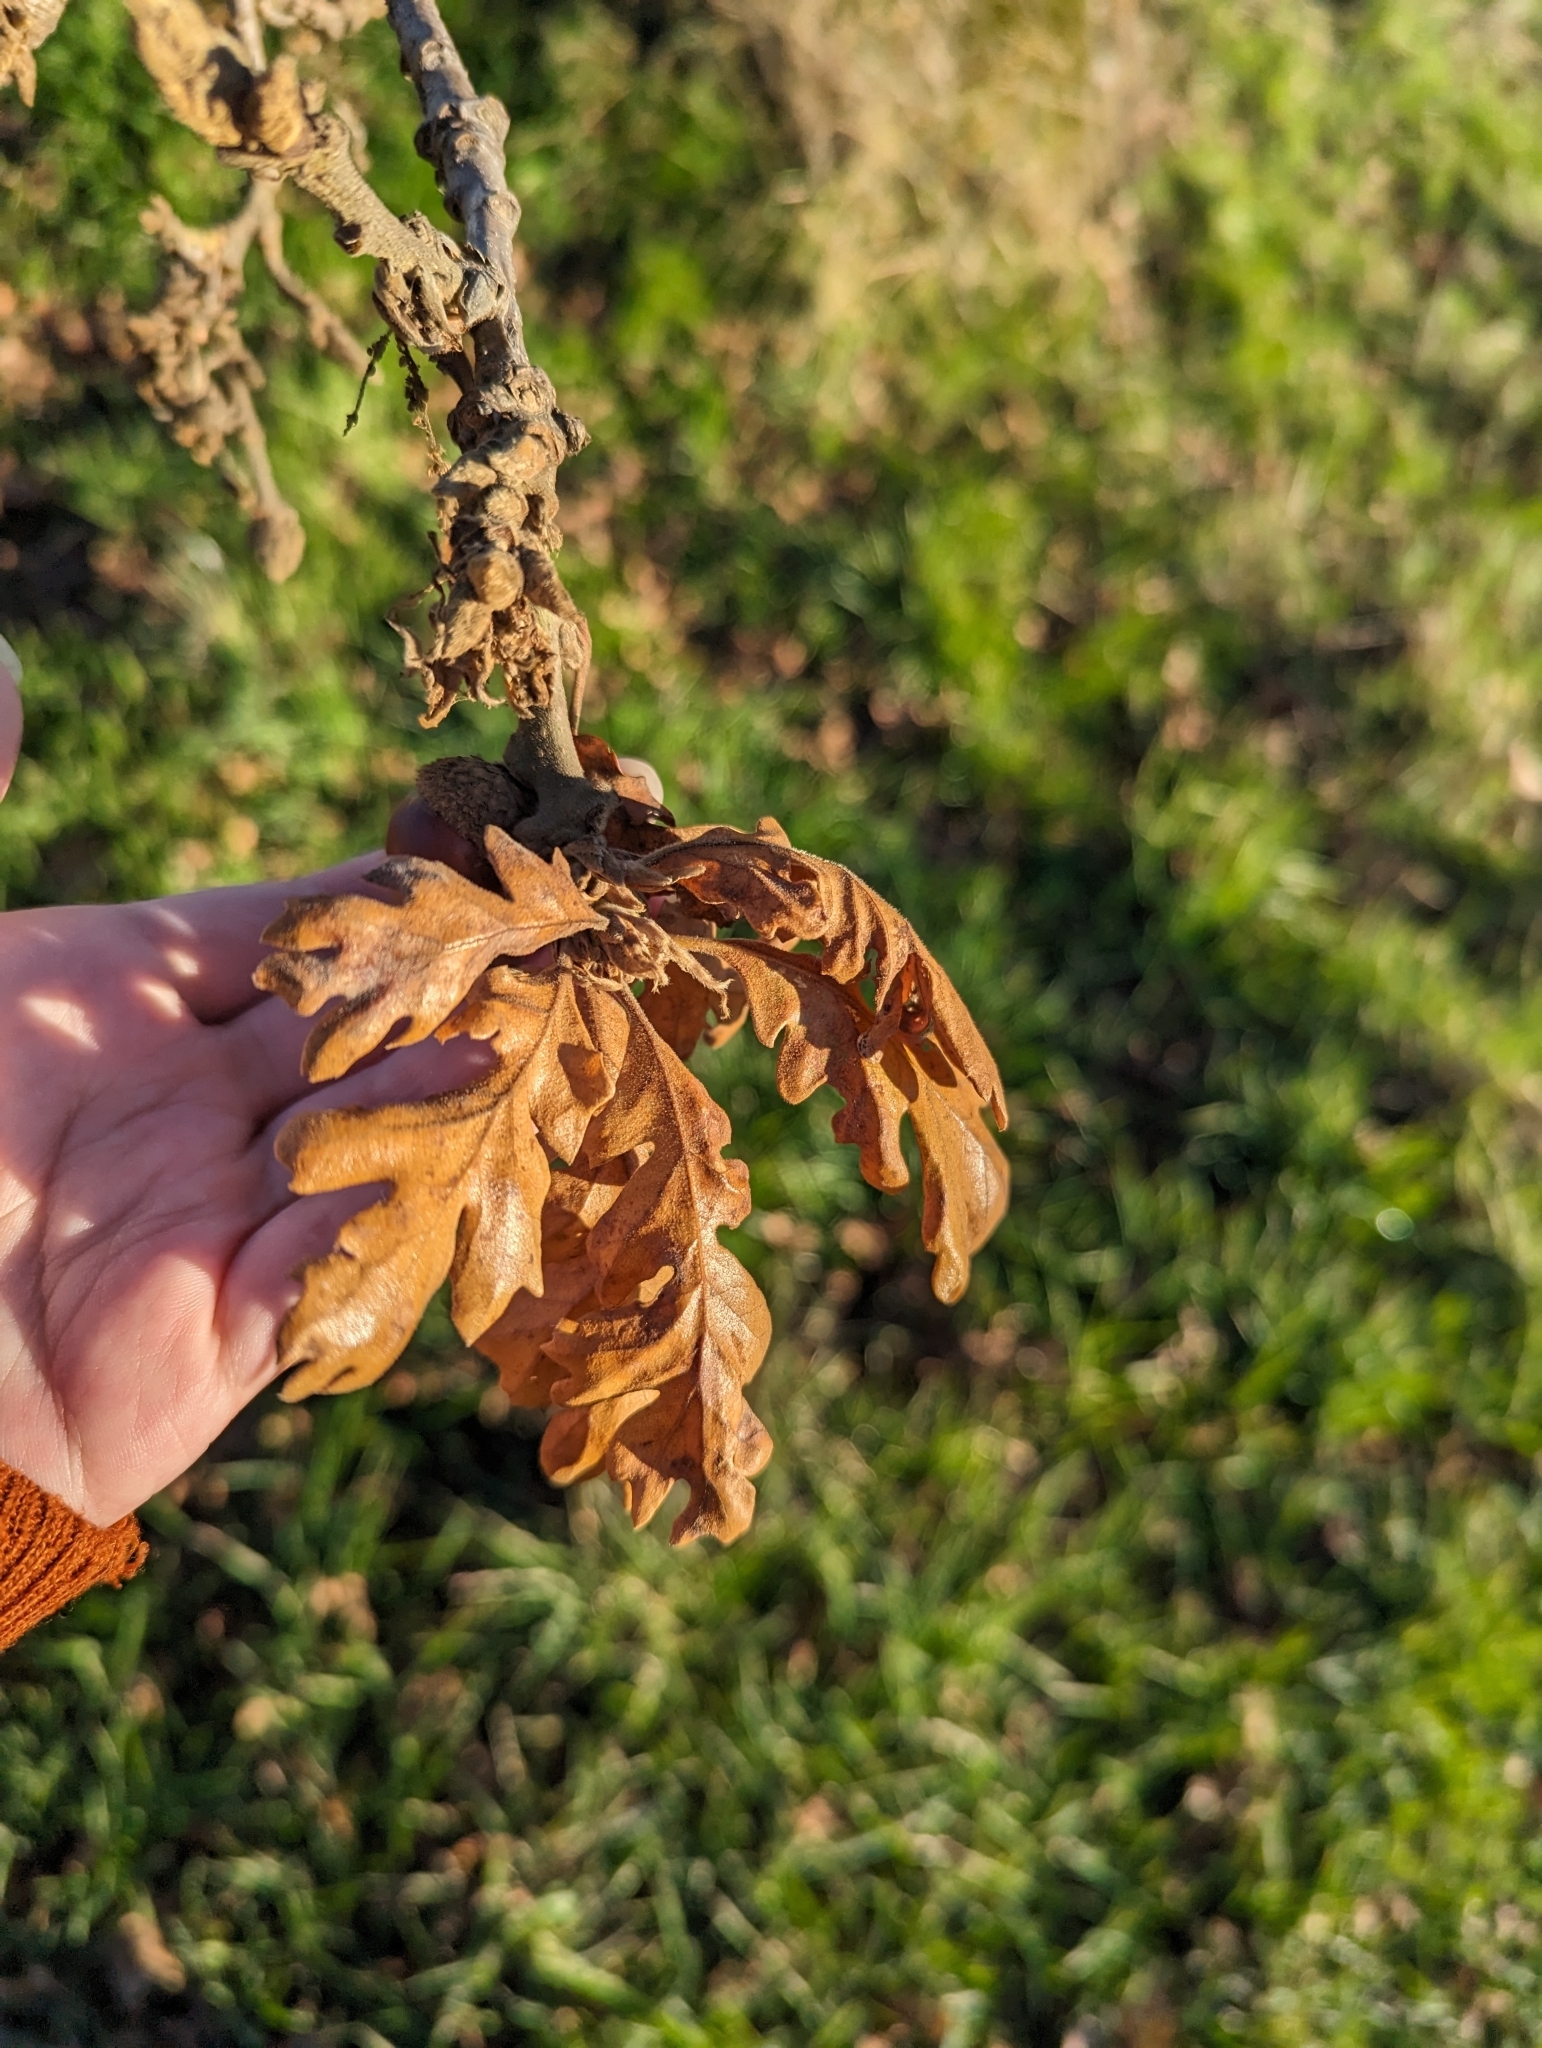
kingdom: Plantae
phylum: Tracheophyta
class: Magnoliopsida
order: Fagales
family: Fagaceae
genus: Quercus
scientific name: Quercus garryana
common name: Garry oak
